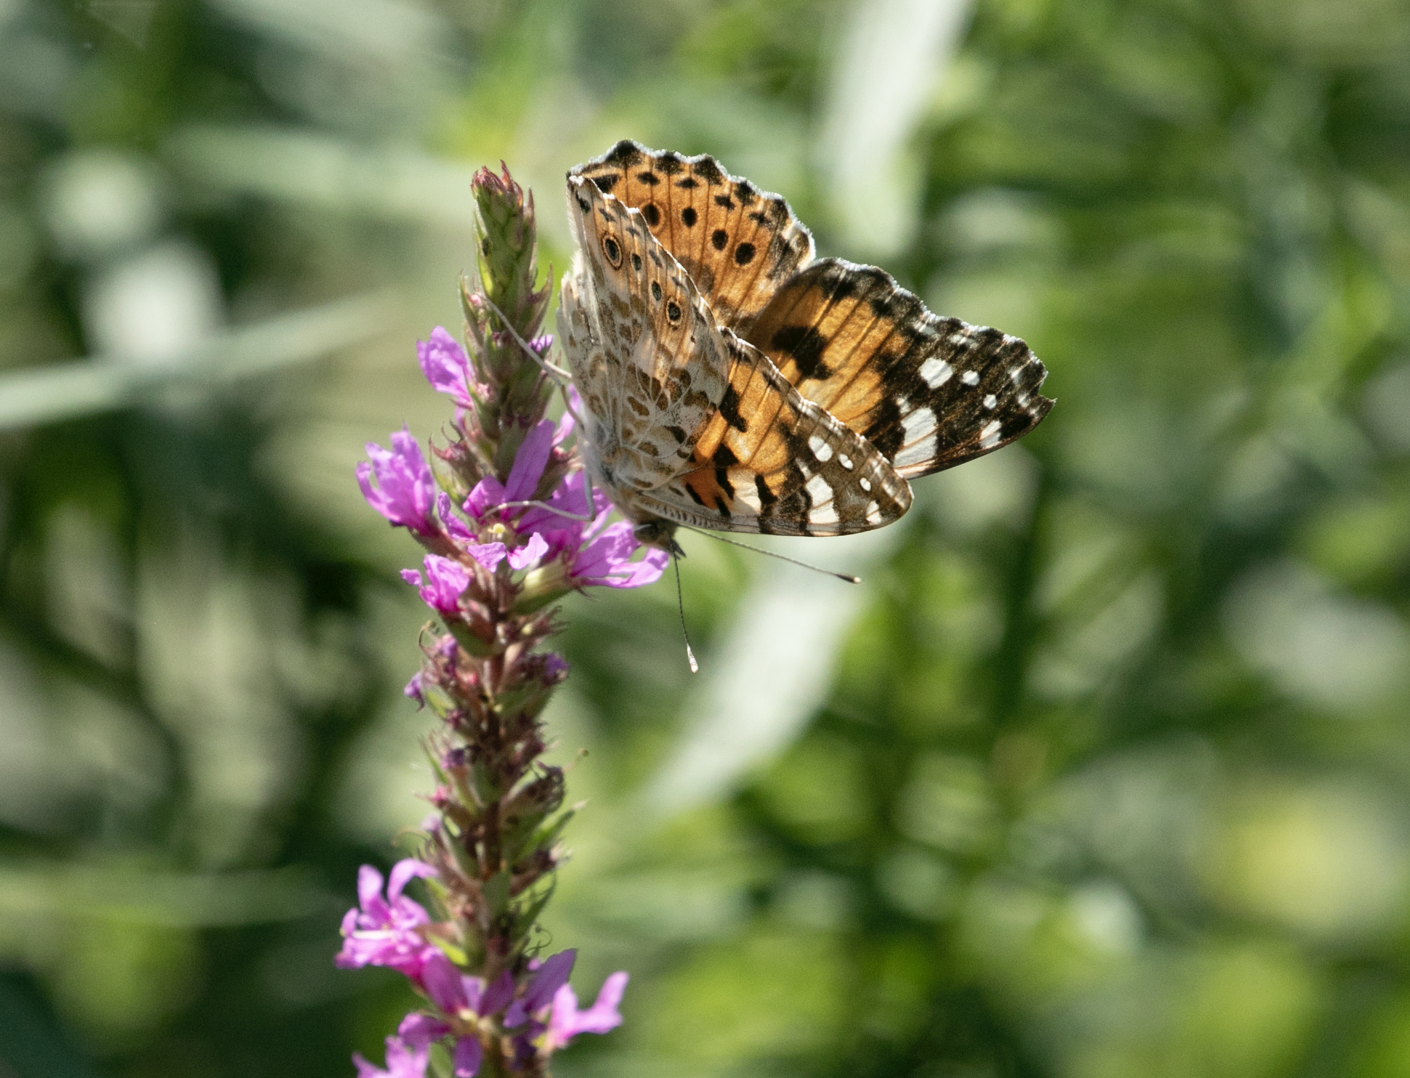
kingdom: Animalia
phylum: Arthropoda
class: Insecta
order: Lepidoptera
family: Nymphalidae
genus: Vanessa
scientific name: Vanessa cardui
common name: Painted lady
